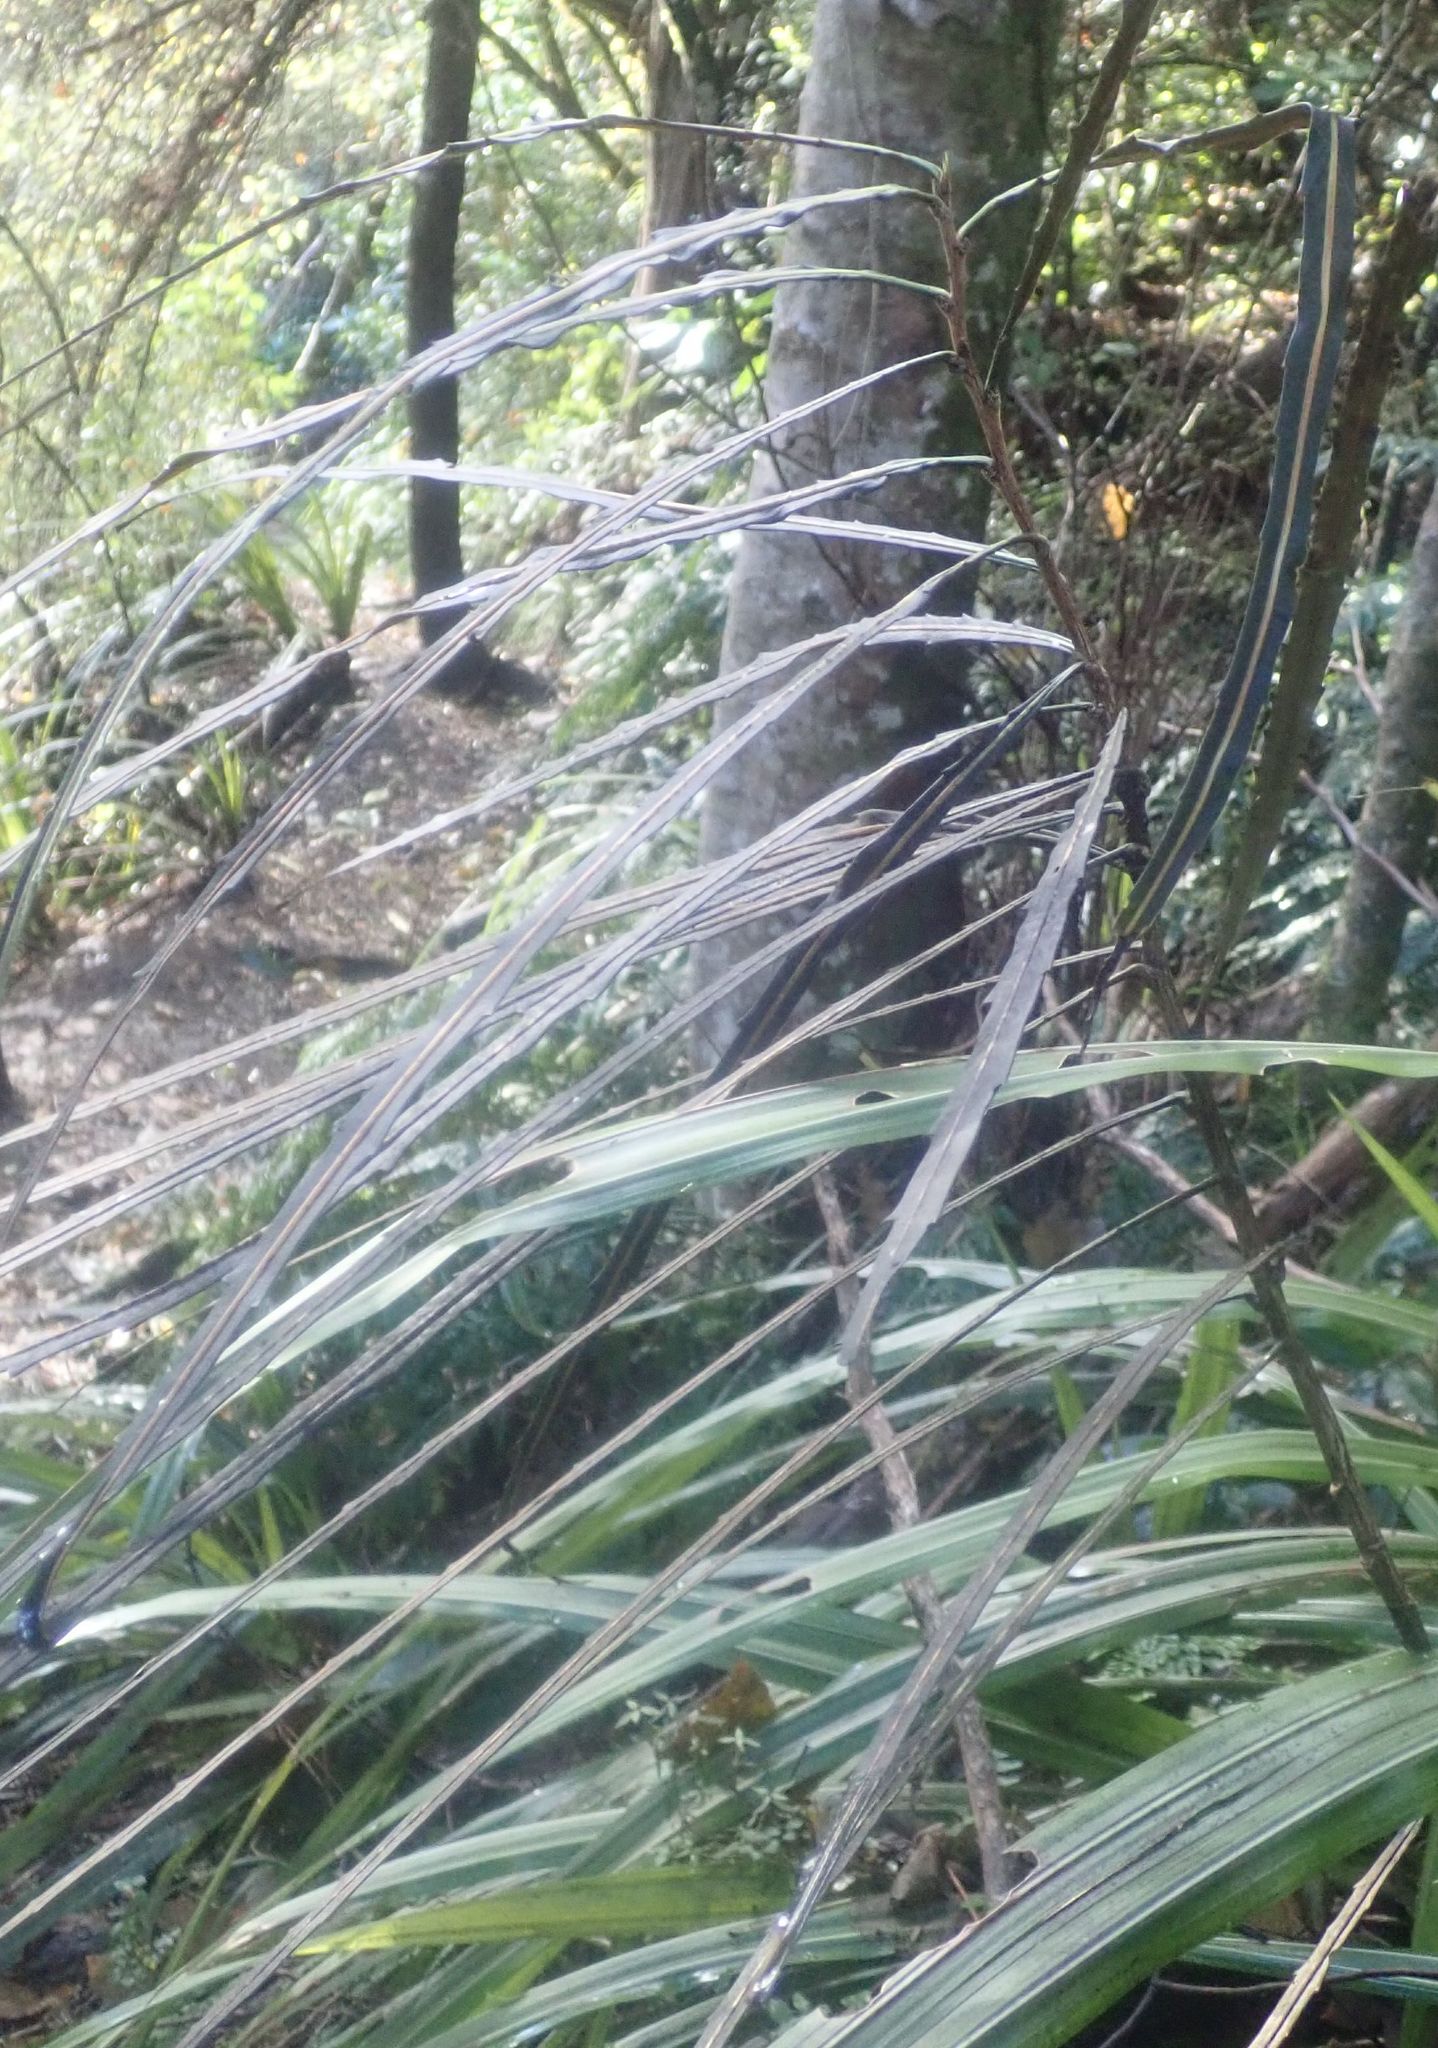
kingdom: Plantae
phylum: Tracheophyta
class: Magnoliopsida
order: Apiales
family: Araliaceae
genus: Pseudopanax
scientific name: Pseudopanax crassifolius
